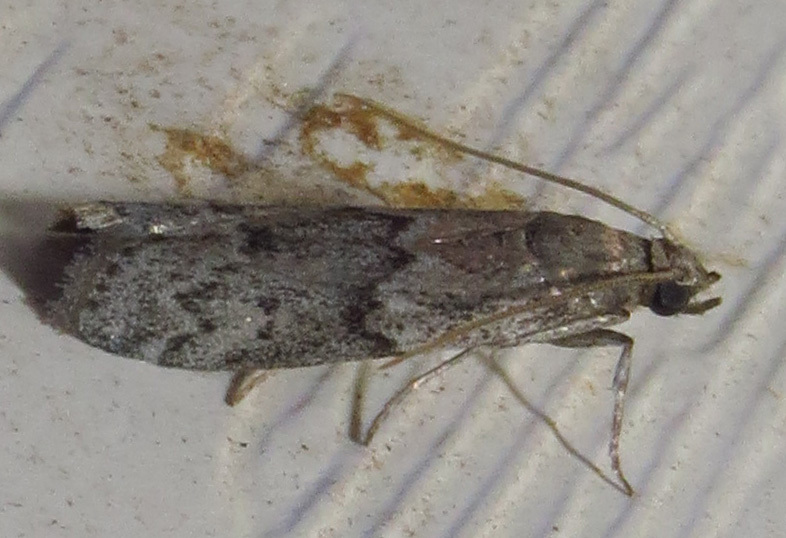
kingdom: Animalia
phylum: Arthropoda
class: Insecta
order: Lepidoptera
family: Pyralidae
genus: Vitula
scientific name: Vitula edmandsii
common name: Dried fruit moth
